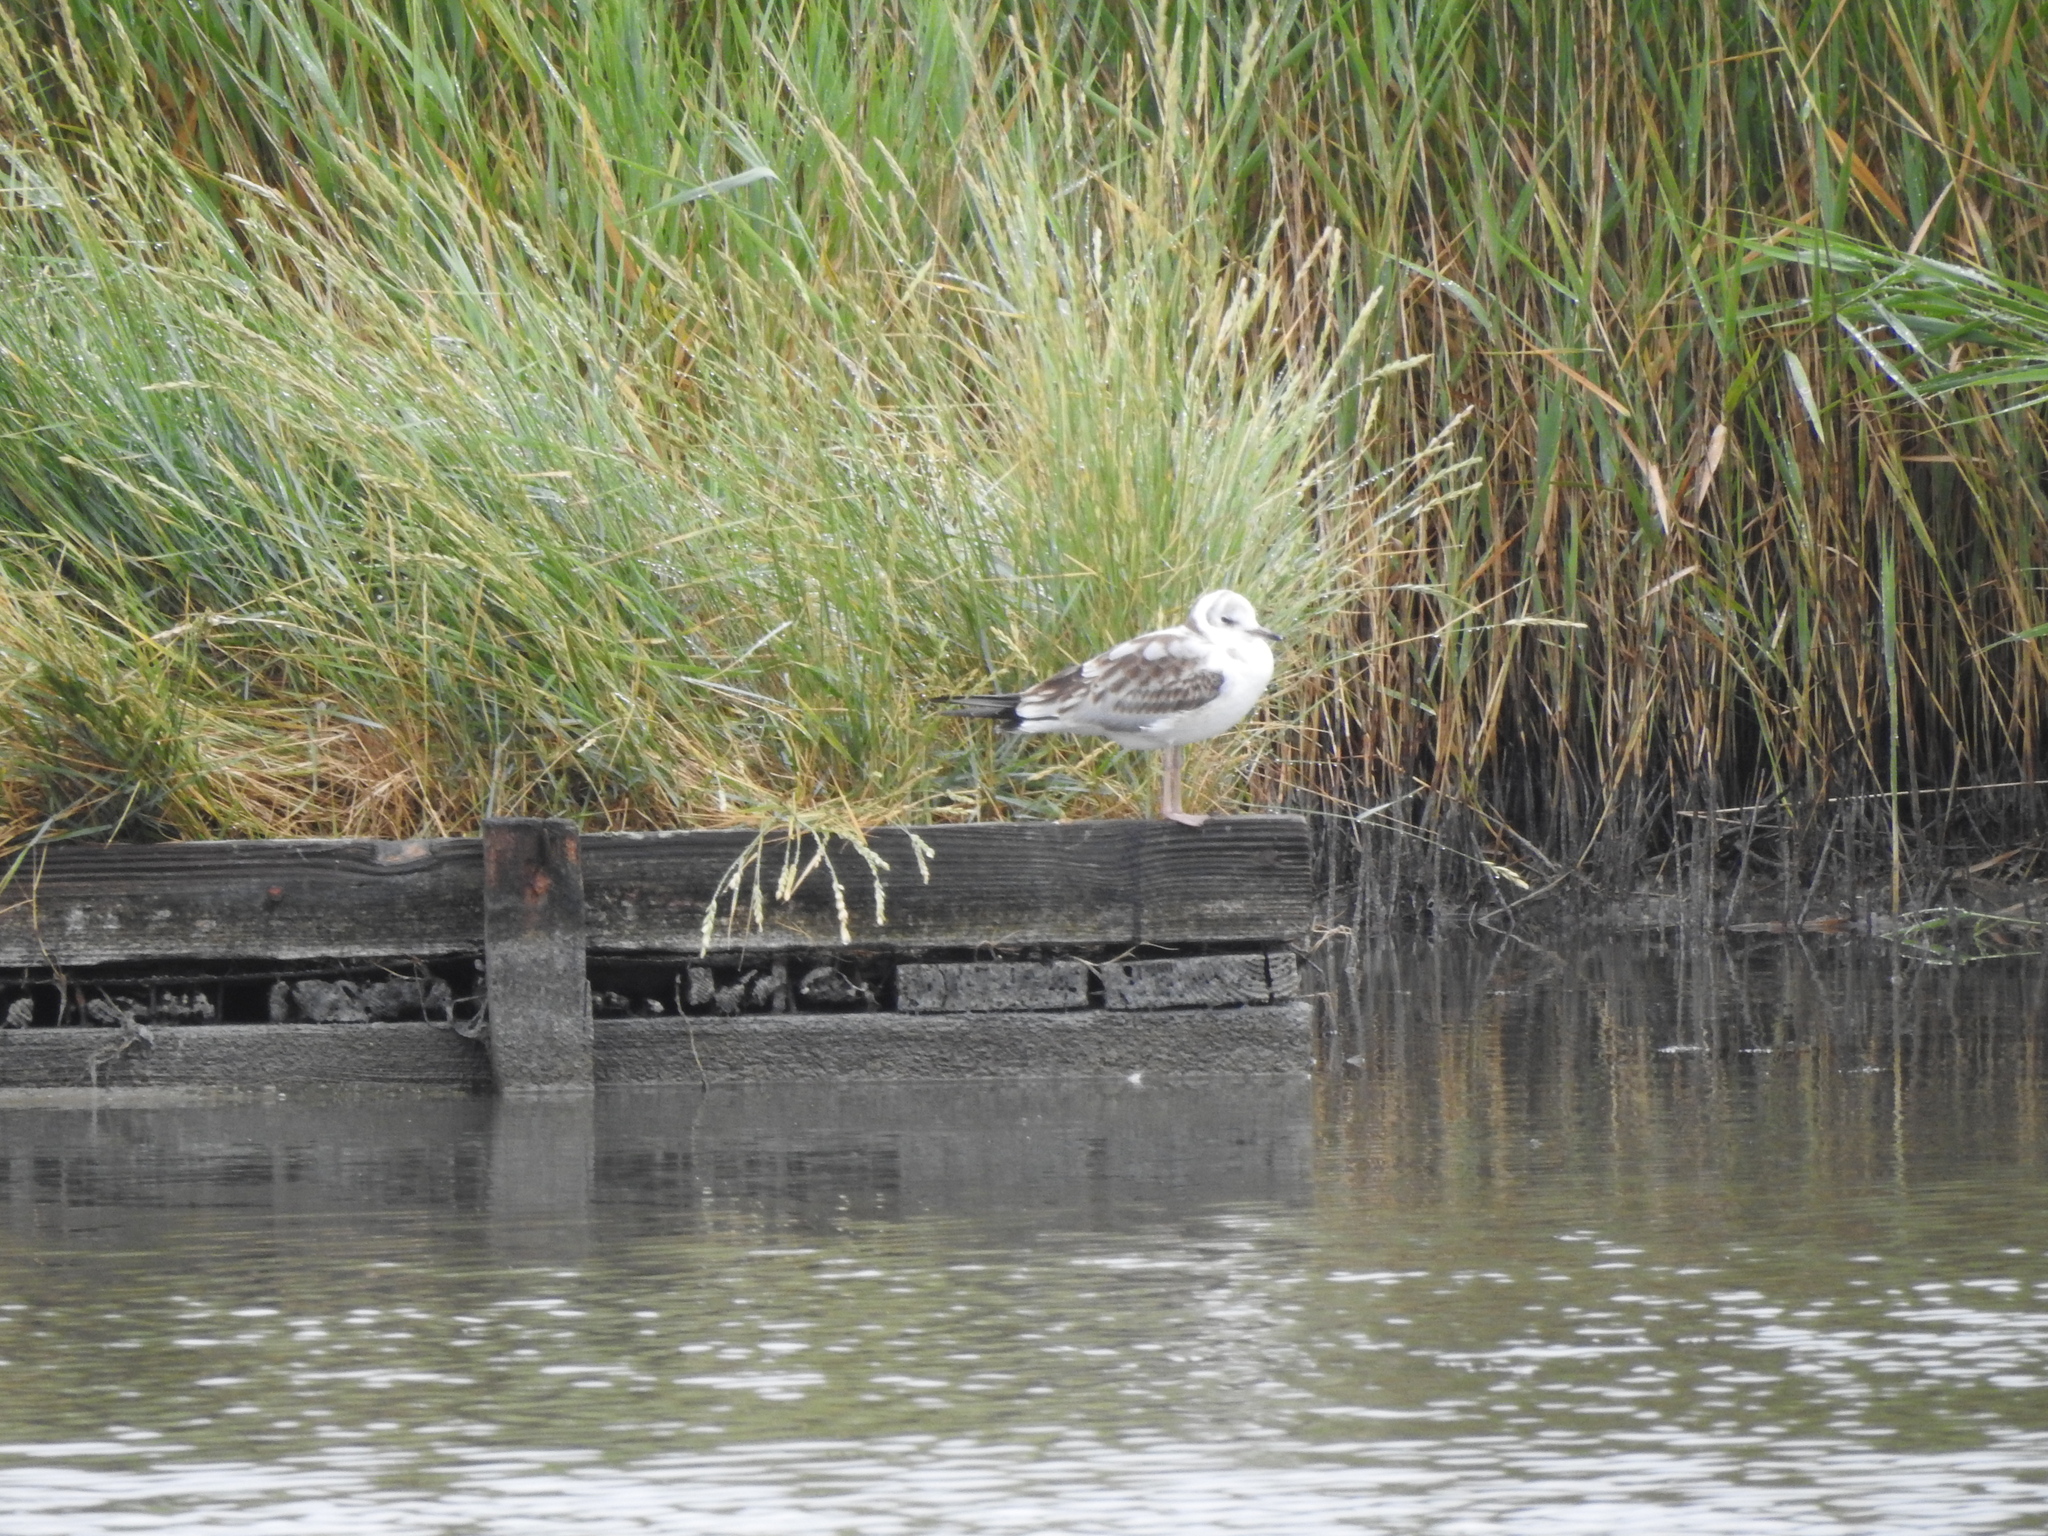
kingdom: Animalia
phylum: Chordata
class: Aves
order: Charadriiformes
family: Laridae
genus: Chroicocephalus
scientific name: Chroicocephalus ridibundus
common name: Black-headed gull
